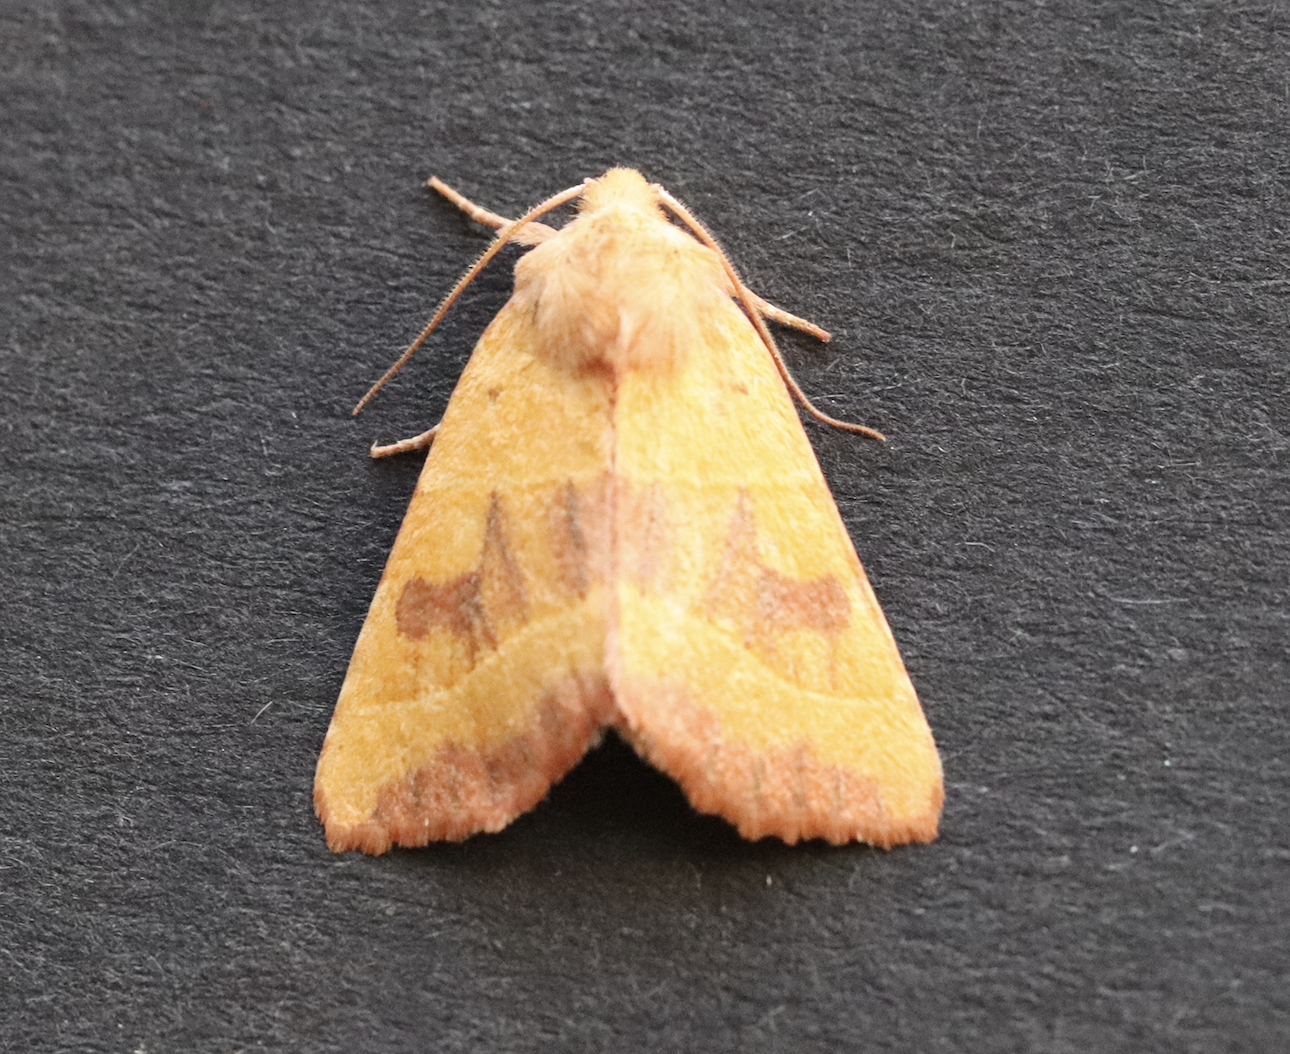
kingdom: Animalia
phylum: Arthropoda
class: Insecta
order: Lepidoptera
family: Noctuidae
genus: Atethmia
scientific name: Atethmia centrago
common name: Centre-barred sallow
